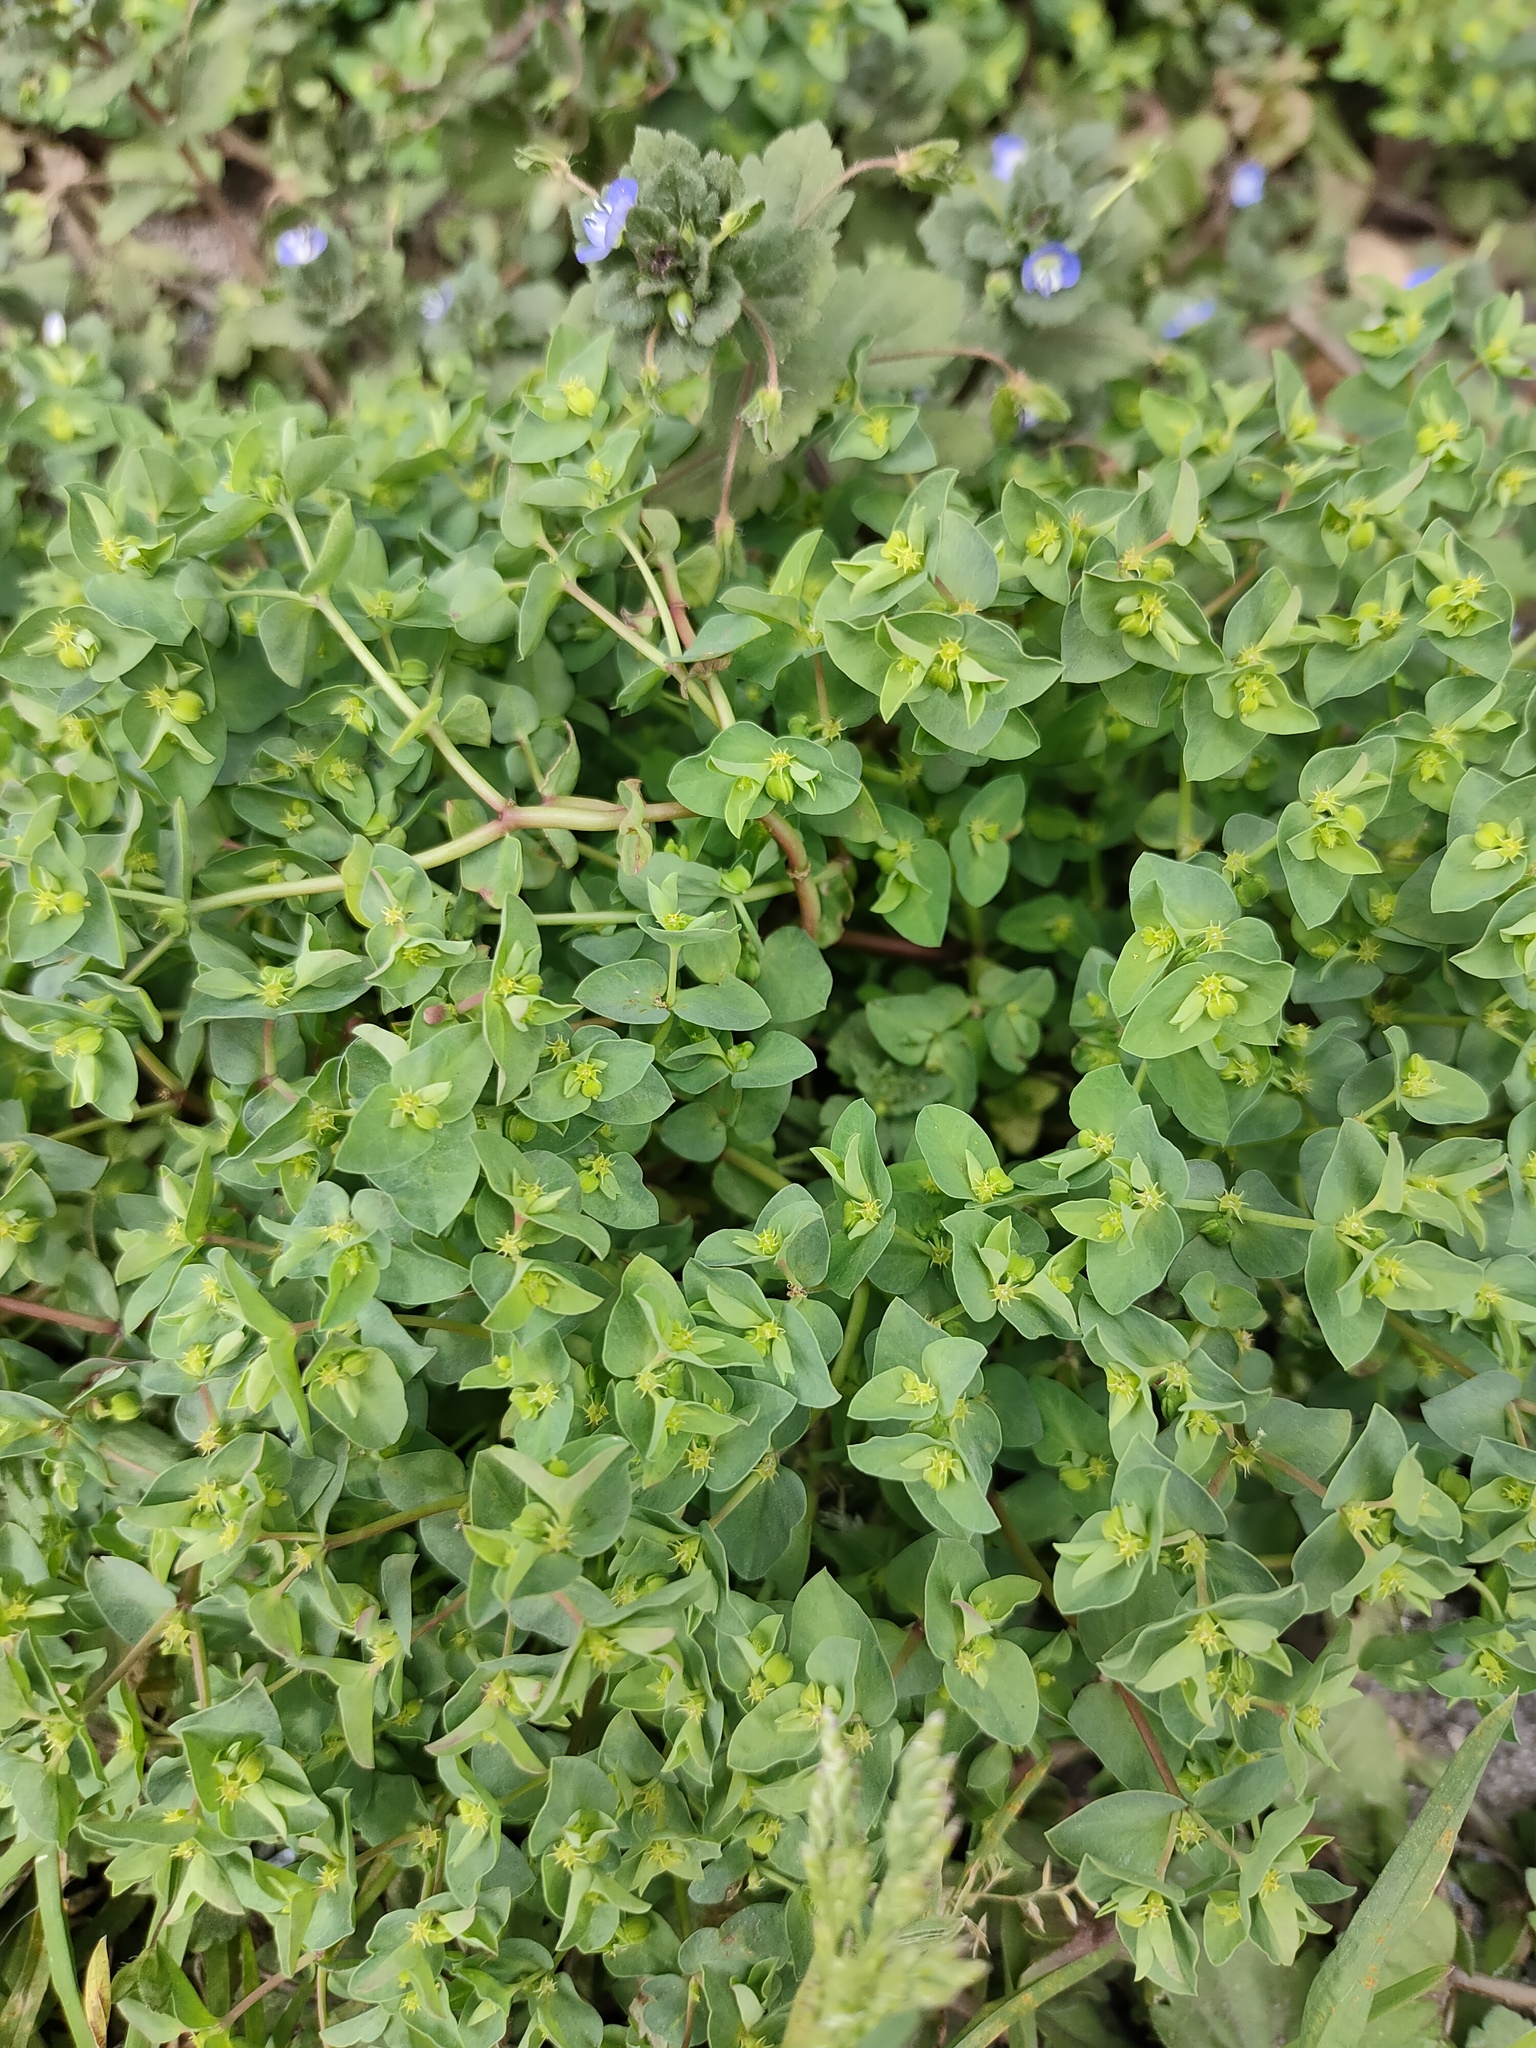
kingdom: Plantae
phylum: Tracheophyta
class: Magnoliopsida
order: Malpighiales
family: Euphorbiaceae
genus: Euphorbia
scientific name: Euphorbia peplus
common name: Petty spurge
